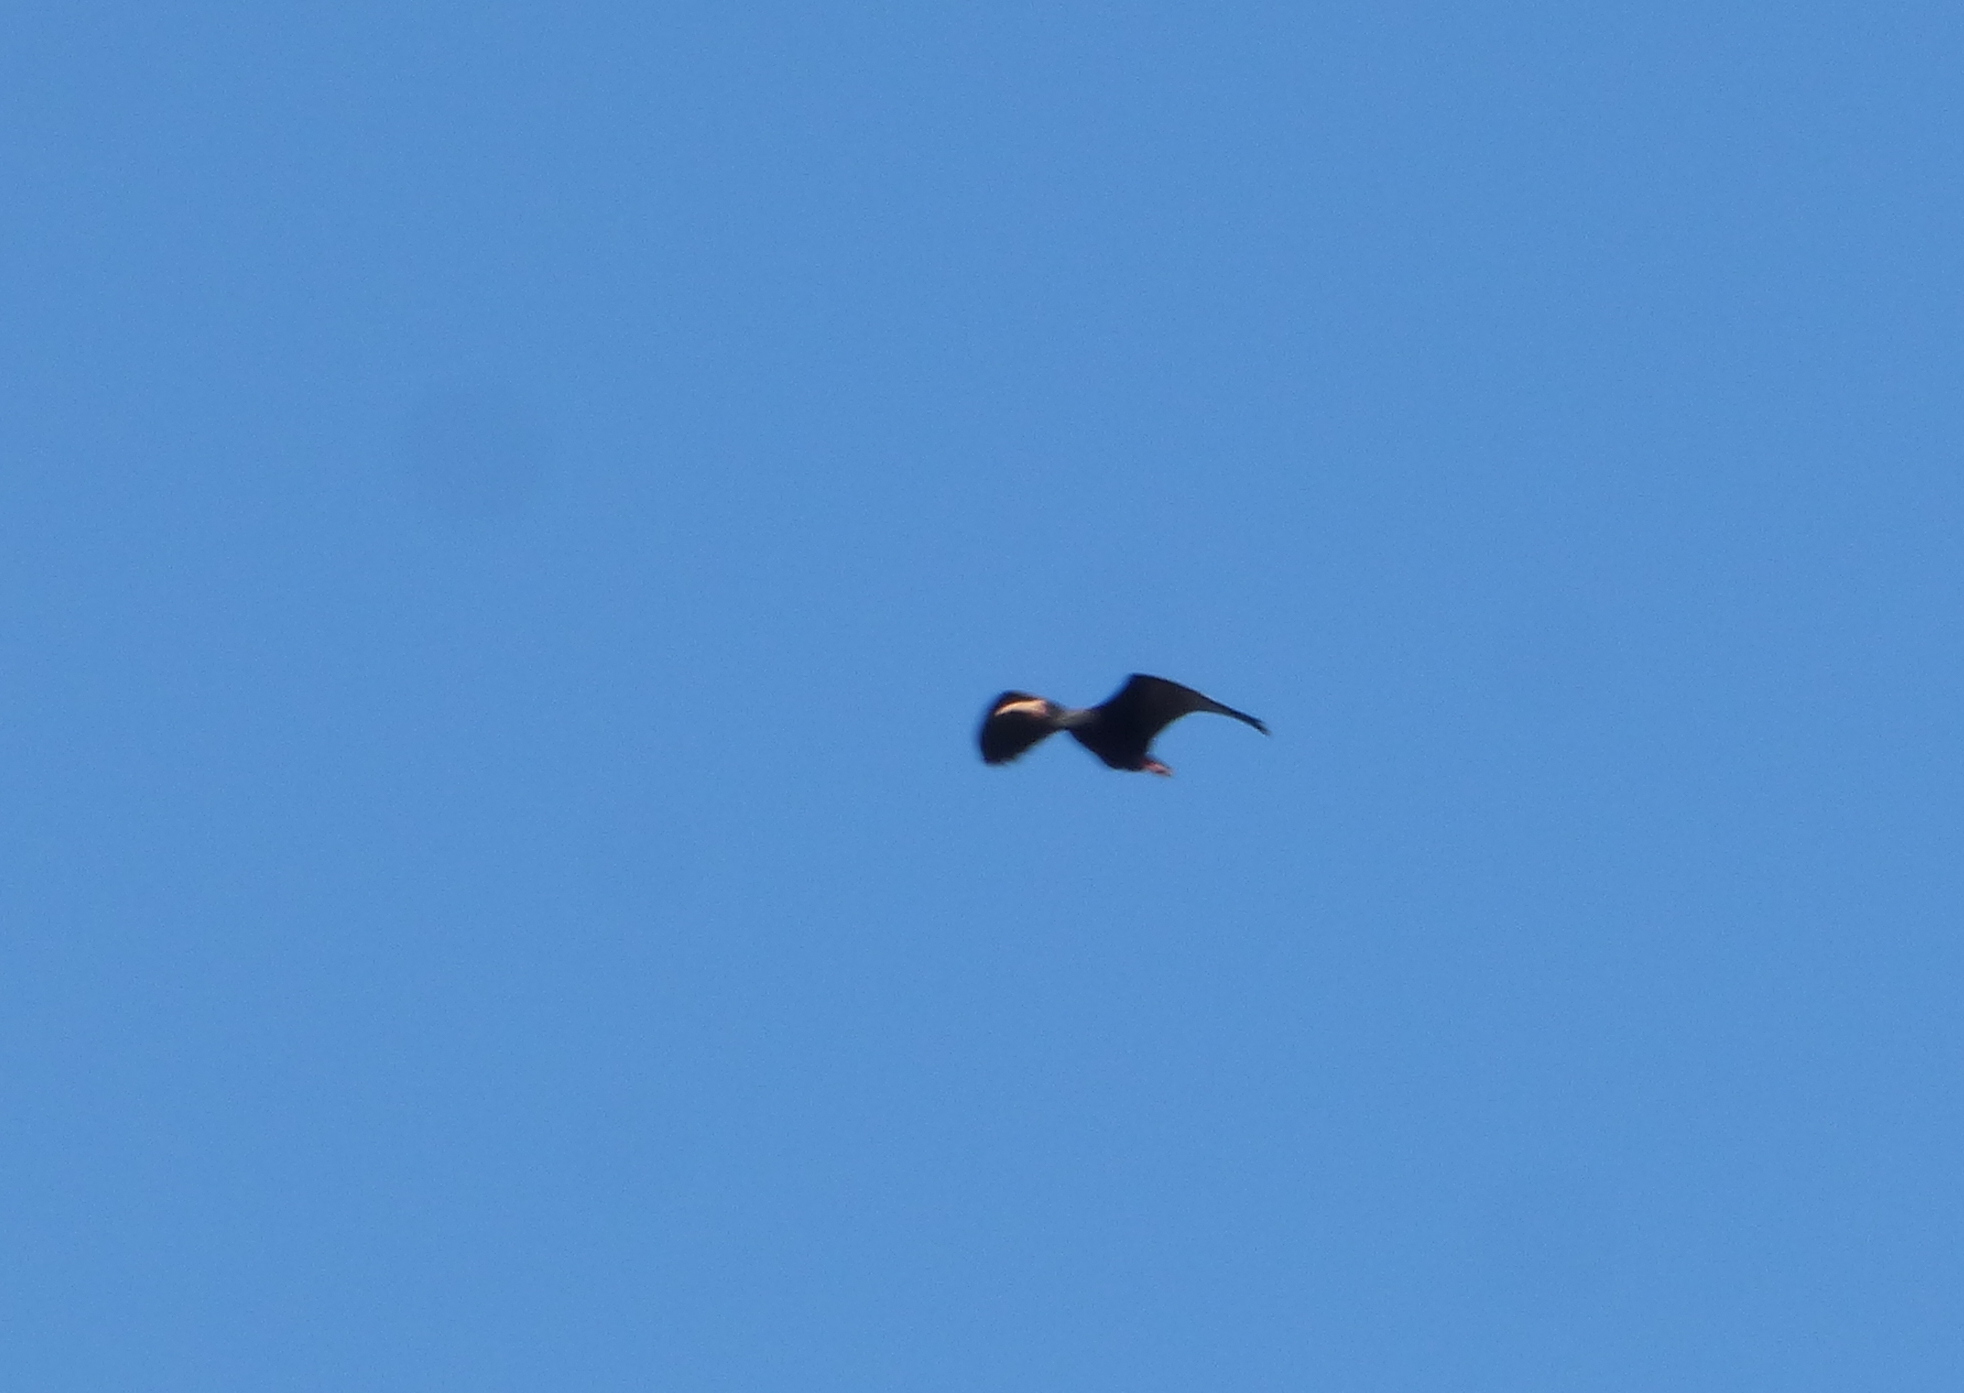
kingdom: Animalia
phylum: Chordata
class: Aves
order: Pelecaniformes
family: Threskiornithidae
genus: Phimosus
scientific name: Phimosus infuscatus
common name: Bare-faced ibis
